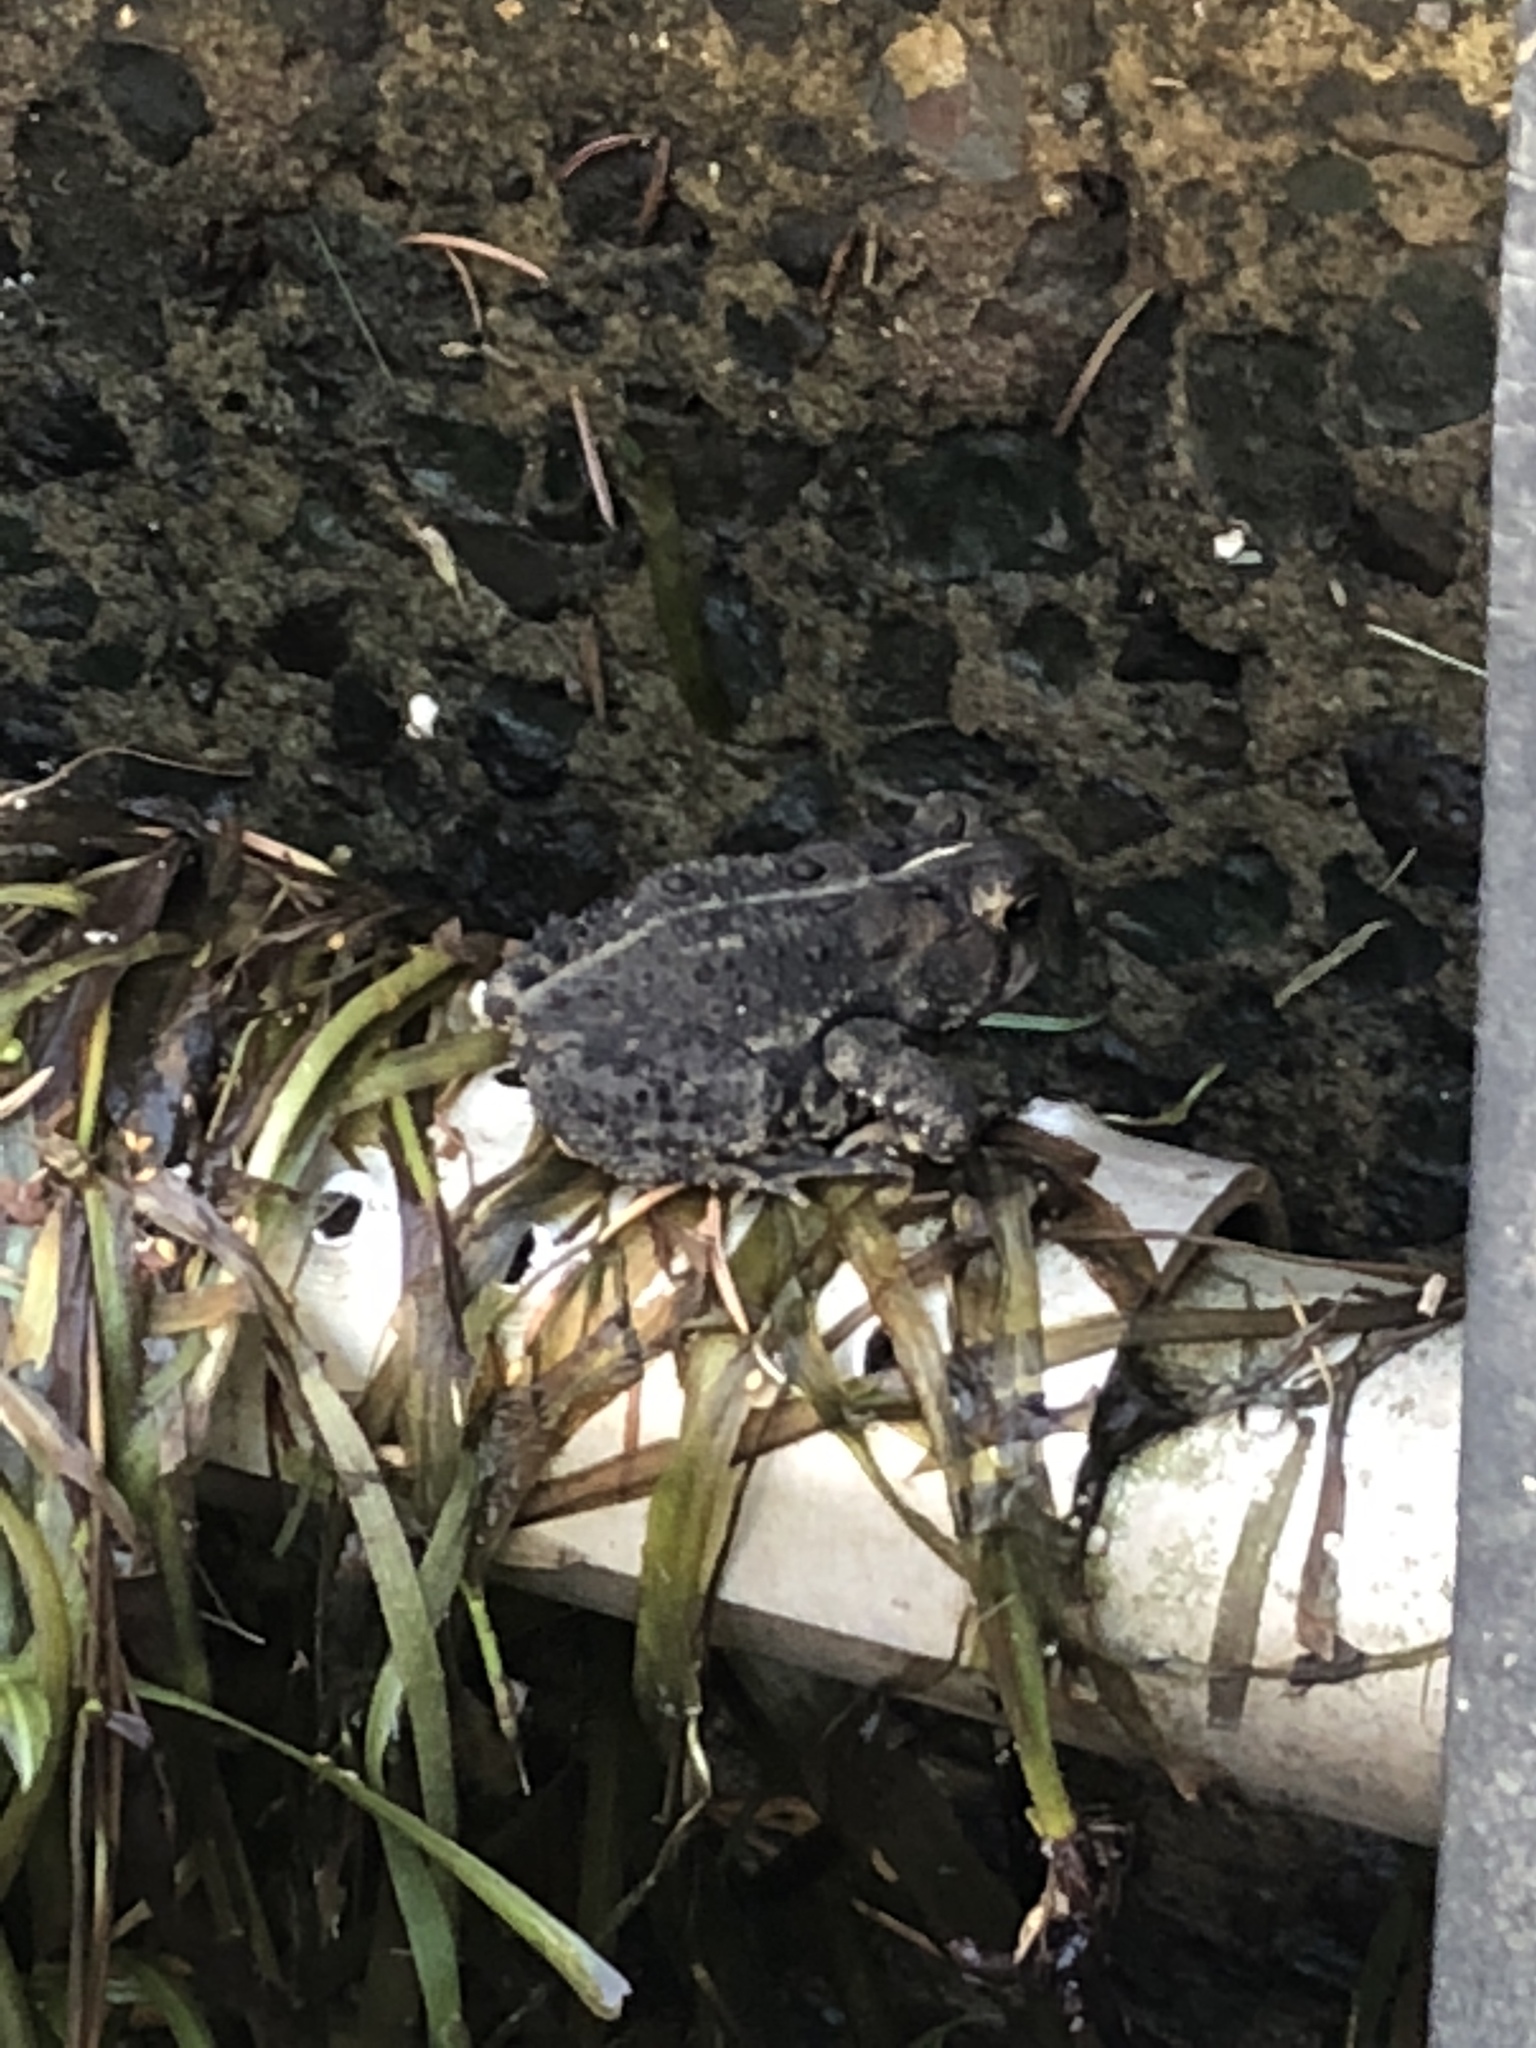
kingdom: Animalia
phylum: Chordata
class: Amphibia
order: Anura
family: Bufonidae
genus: Anaxyrus
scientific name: Anaxyrus americanus
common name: American toad
